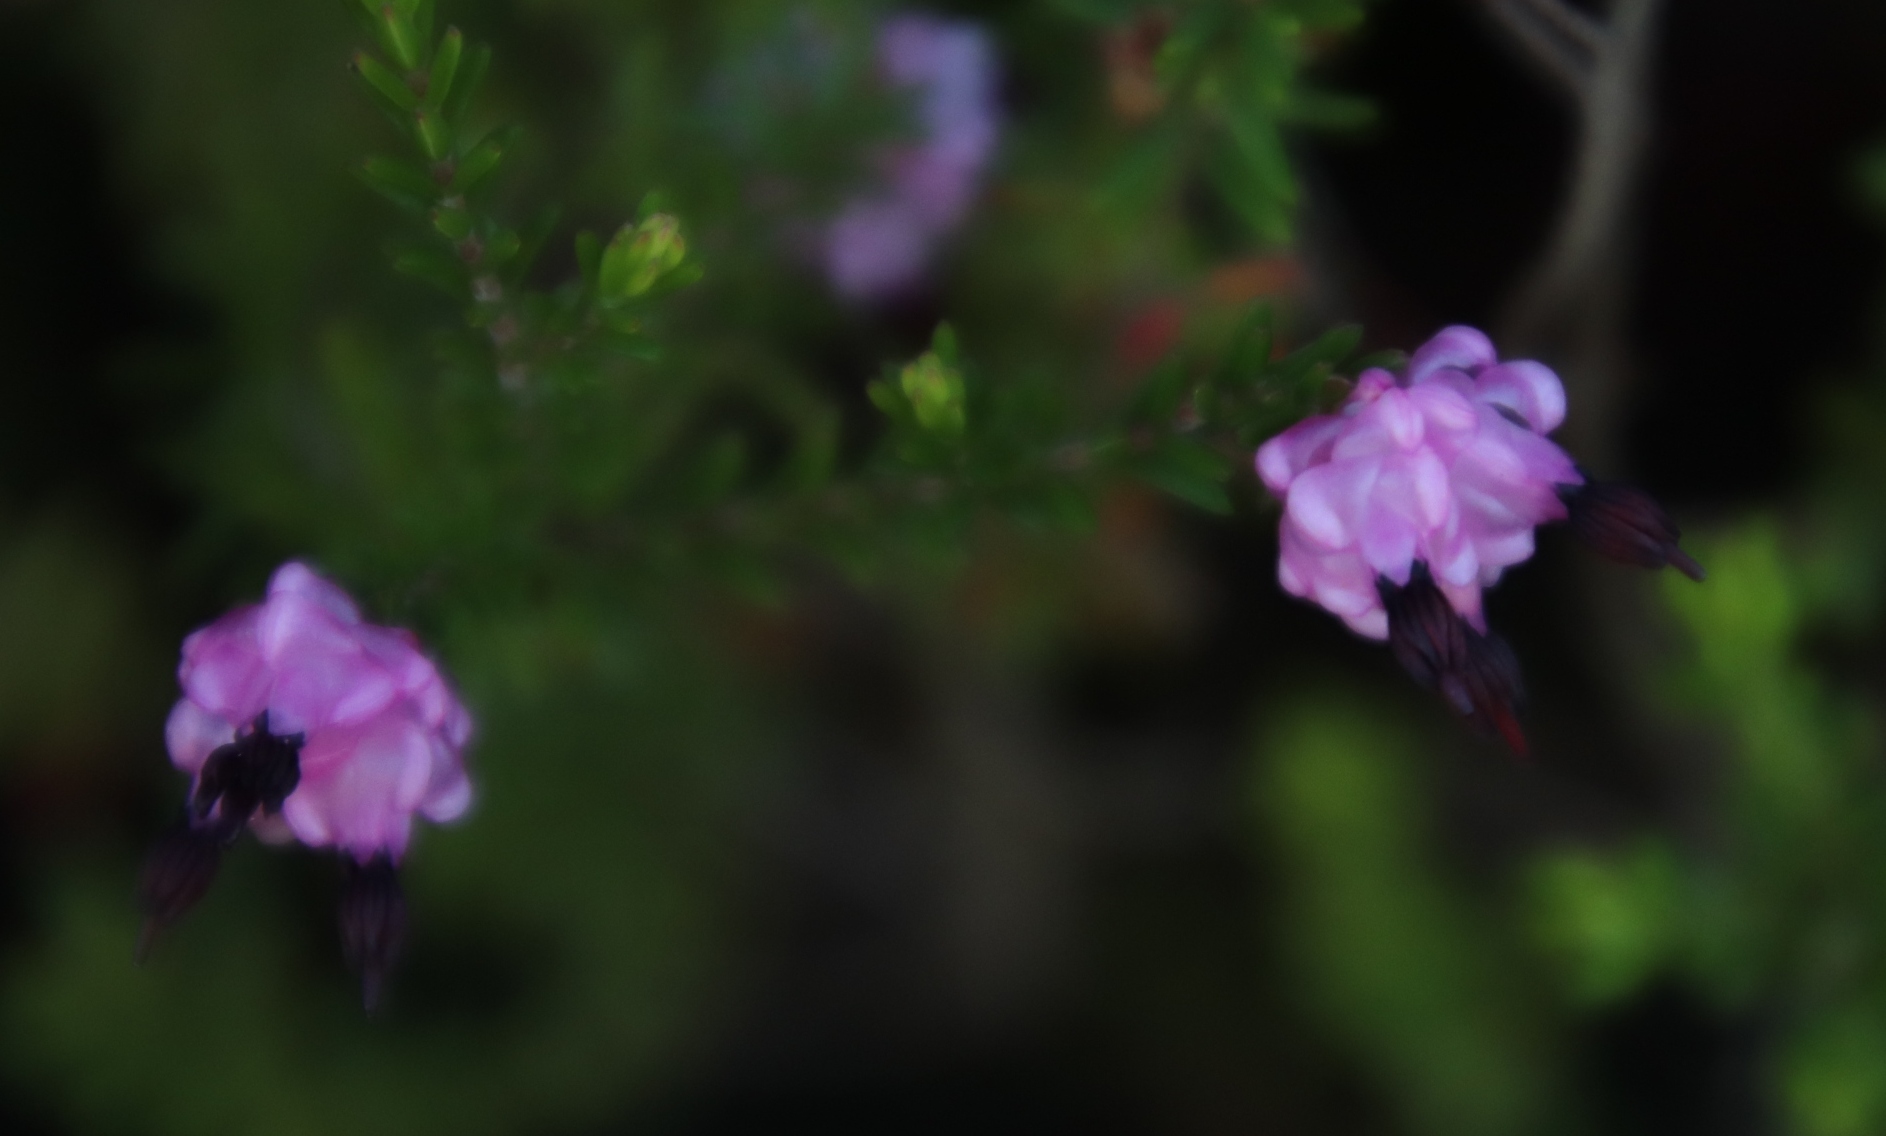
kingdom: Plantae
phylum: Tracheophyta
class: Magnoliopsida
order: Ericales
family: Ericaceae
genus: Erica
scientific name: Erica spumosa
